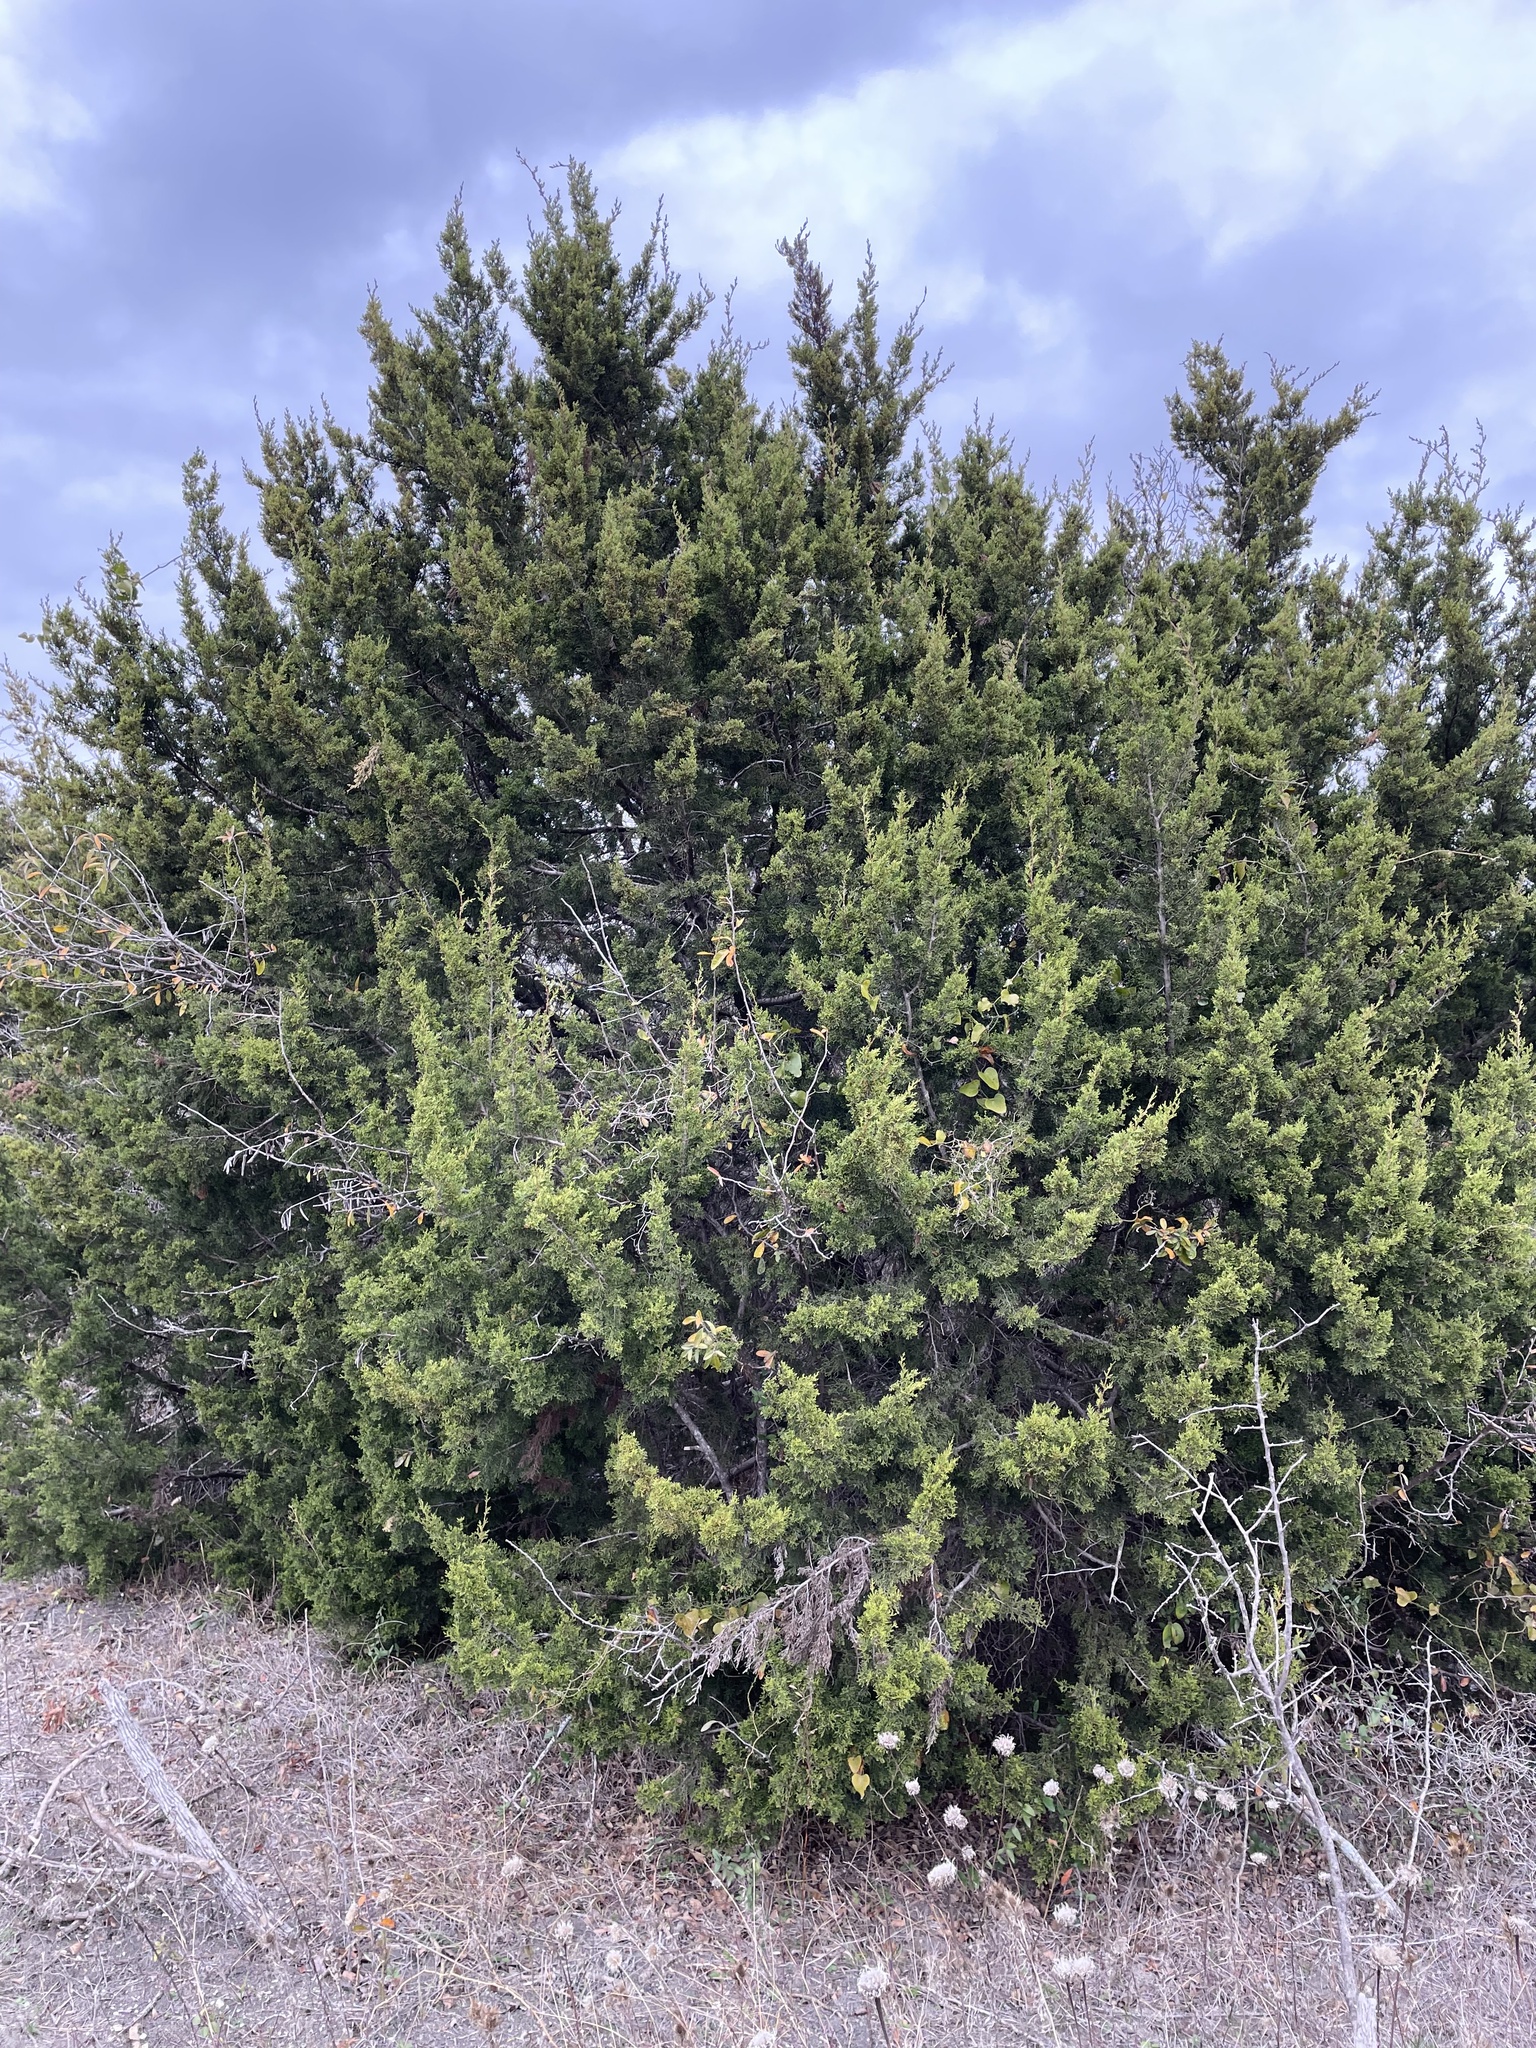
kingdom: Plantae
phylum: Tracheophyta
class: Pinopsida
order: Pinales
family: Cupressaceae
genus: Juniperus
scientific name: Juniperus ashei
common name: Mexican juniper
